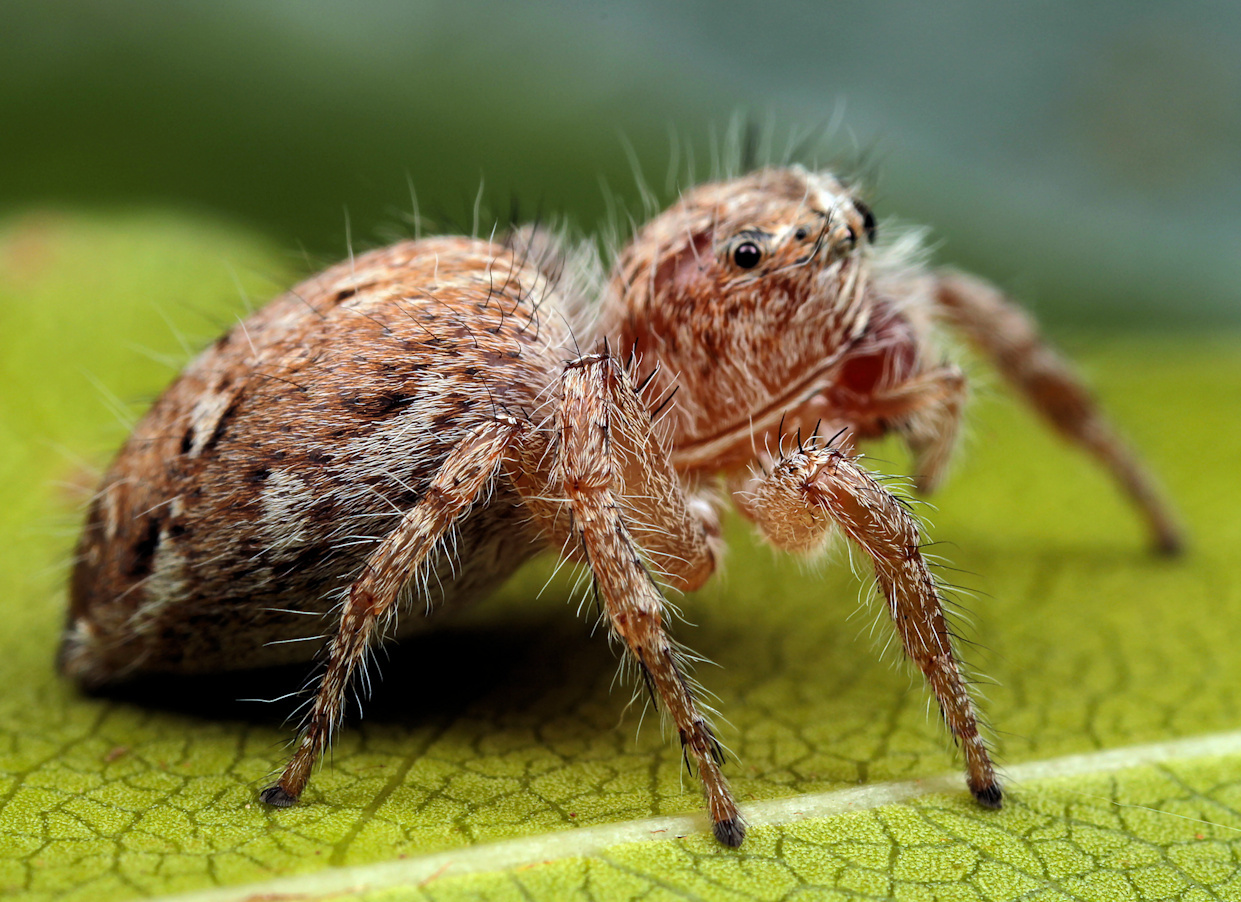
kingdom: Animalia
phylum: Arthropoda
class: Arachnida
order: Araneae
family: Salticidae
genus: Hyllus
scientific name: Hyllus brevitarsis
